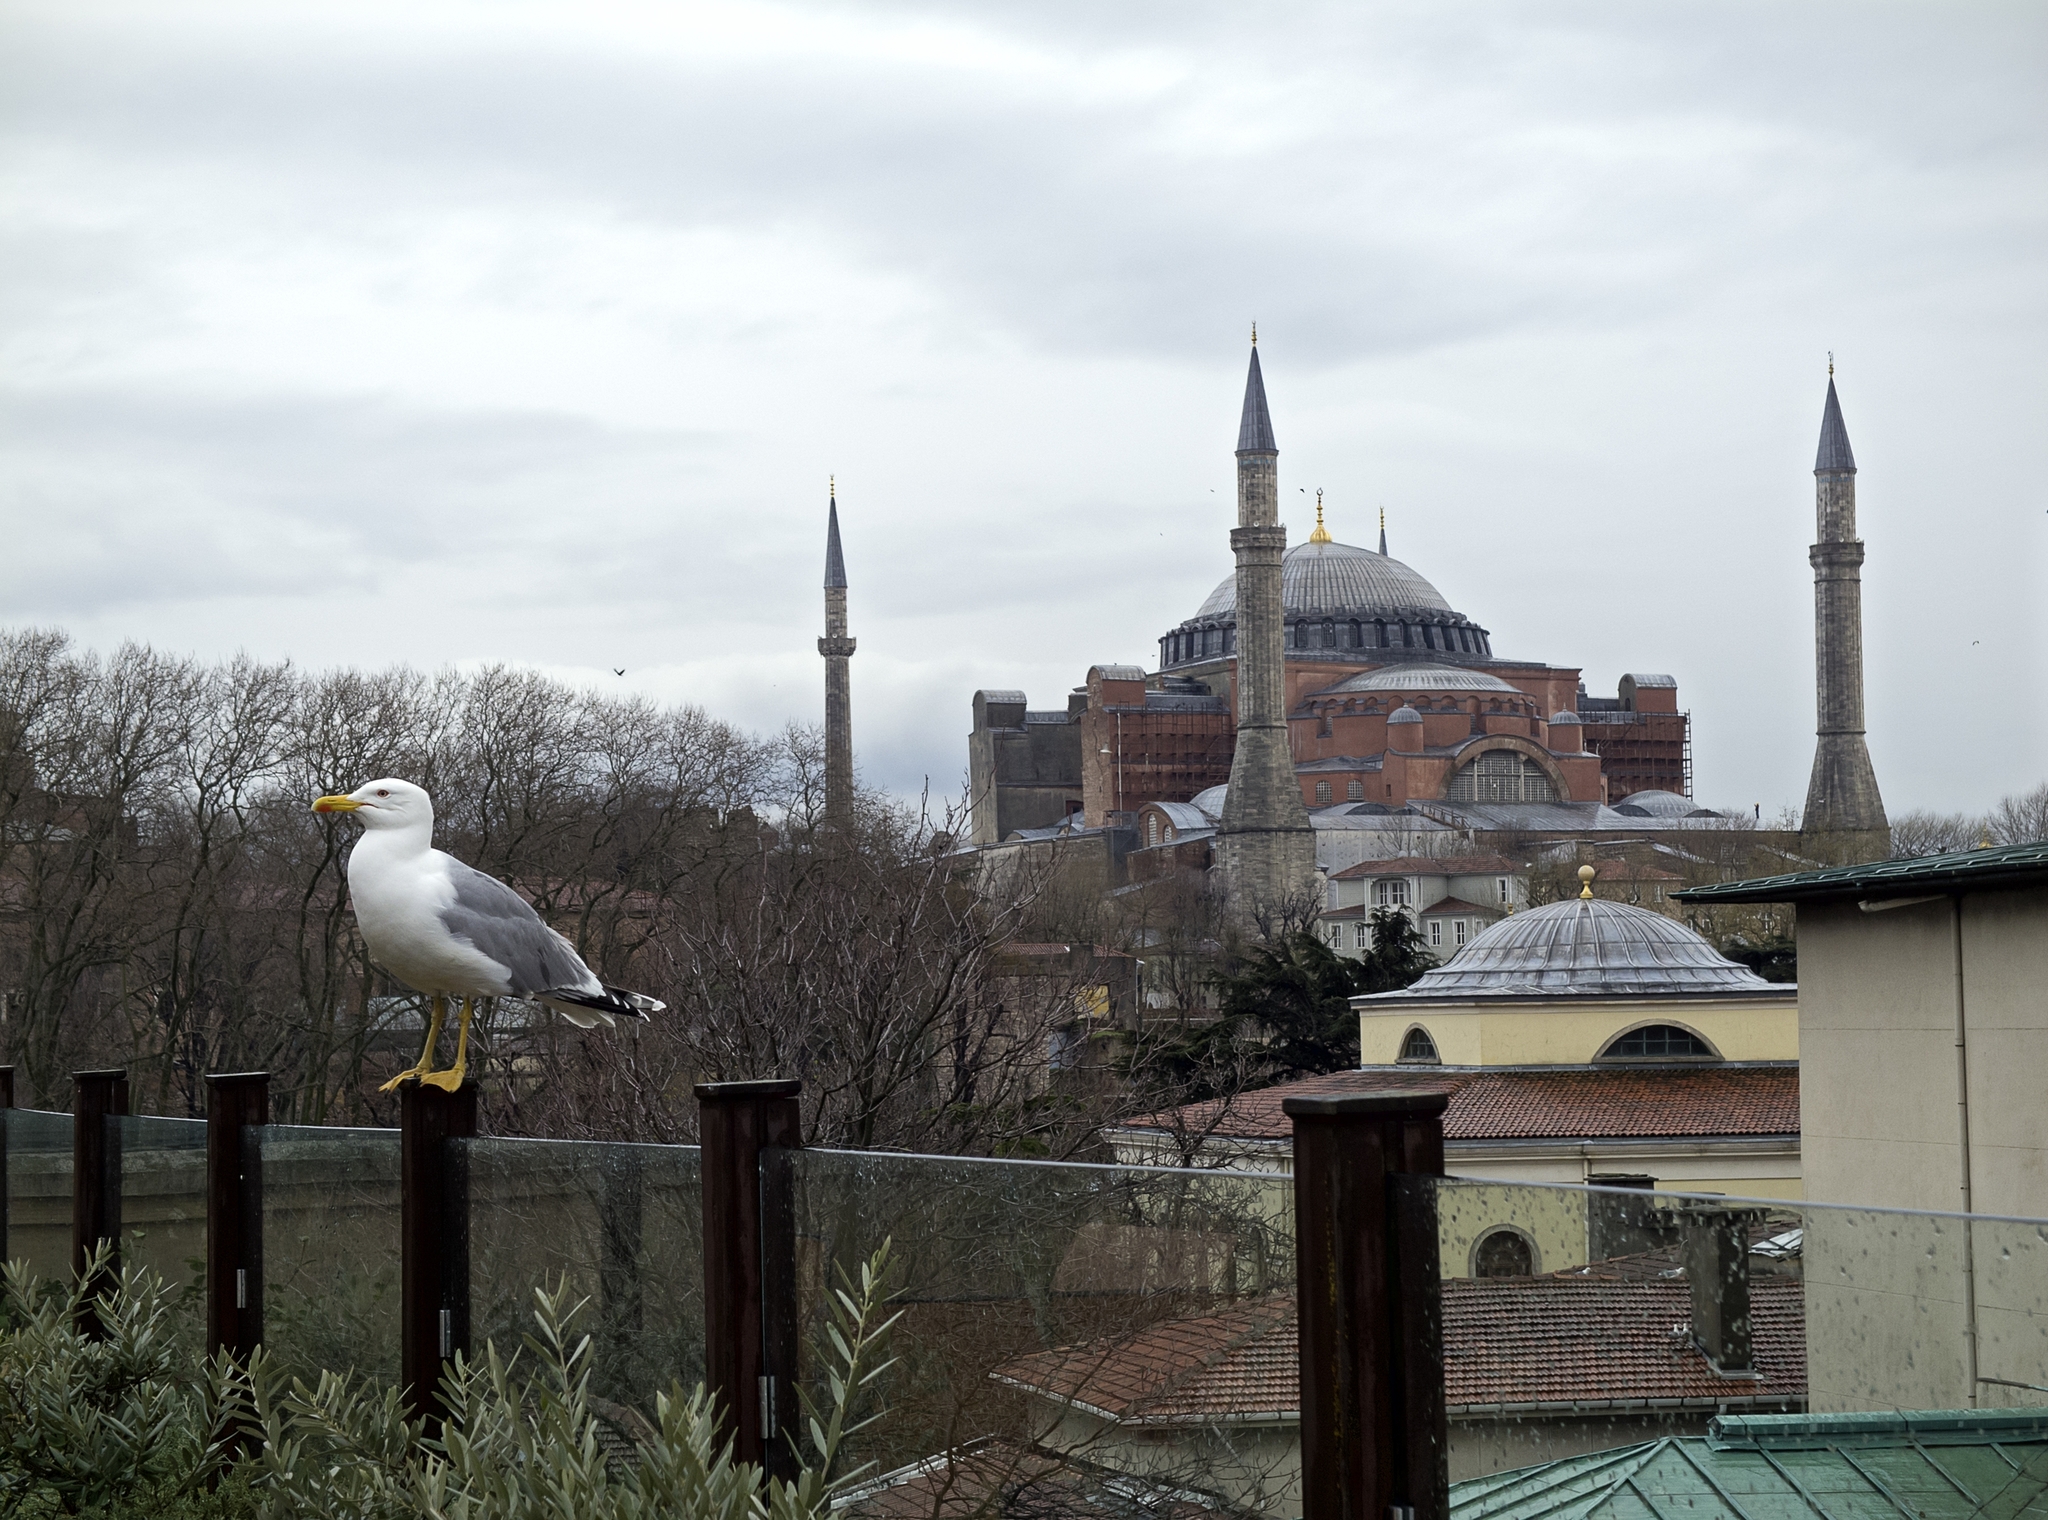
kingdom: Animalia
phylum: Chordata
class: Aves
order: Charadriiformes
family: Laridae
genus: Larus
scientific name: Larus michahellis
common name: Yellow-legged gull
